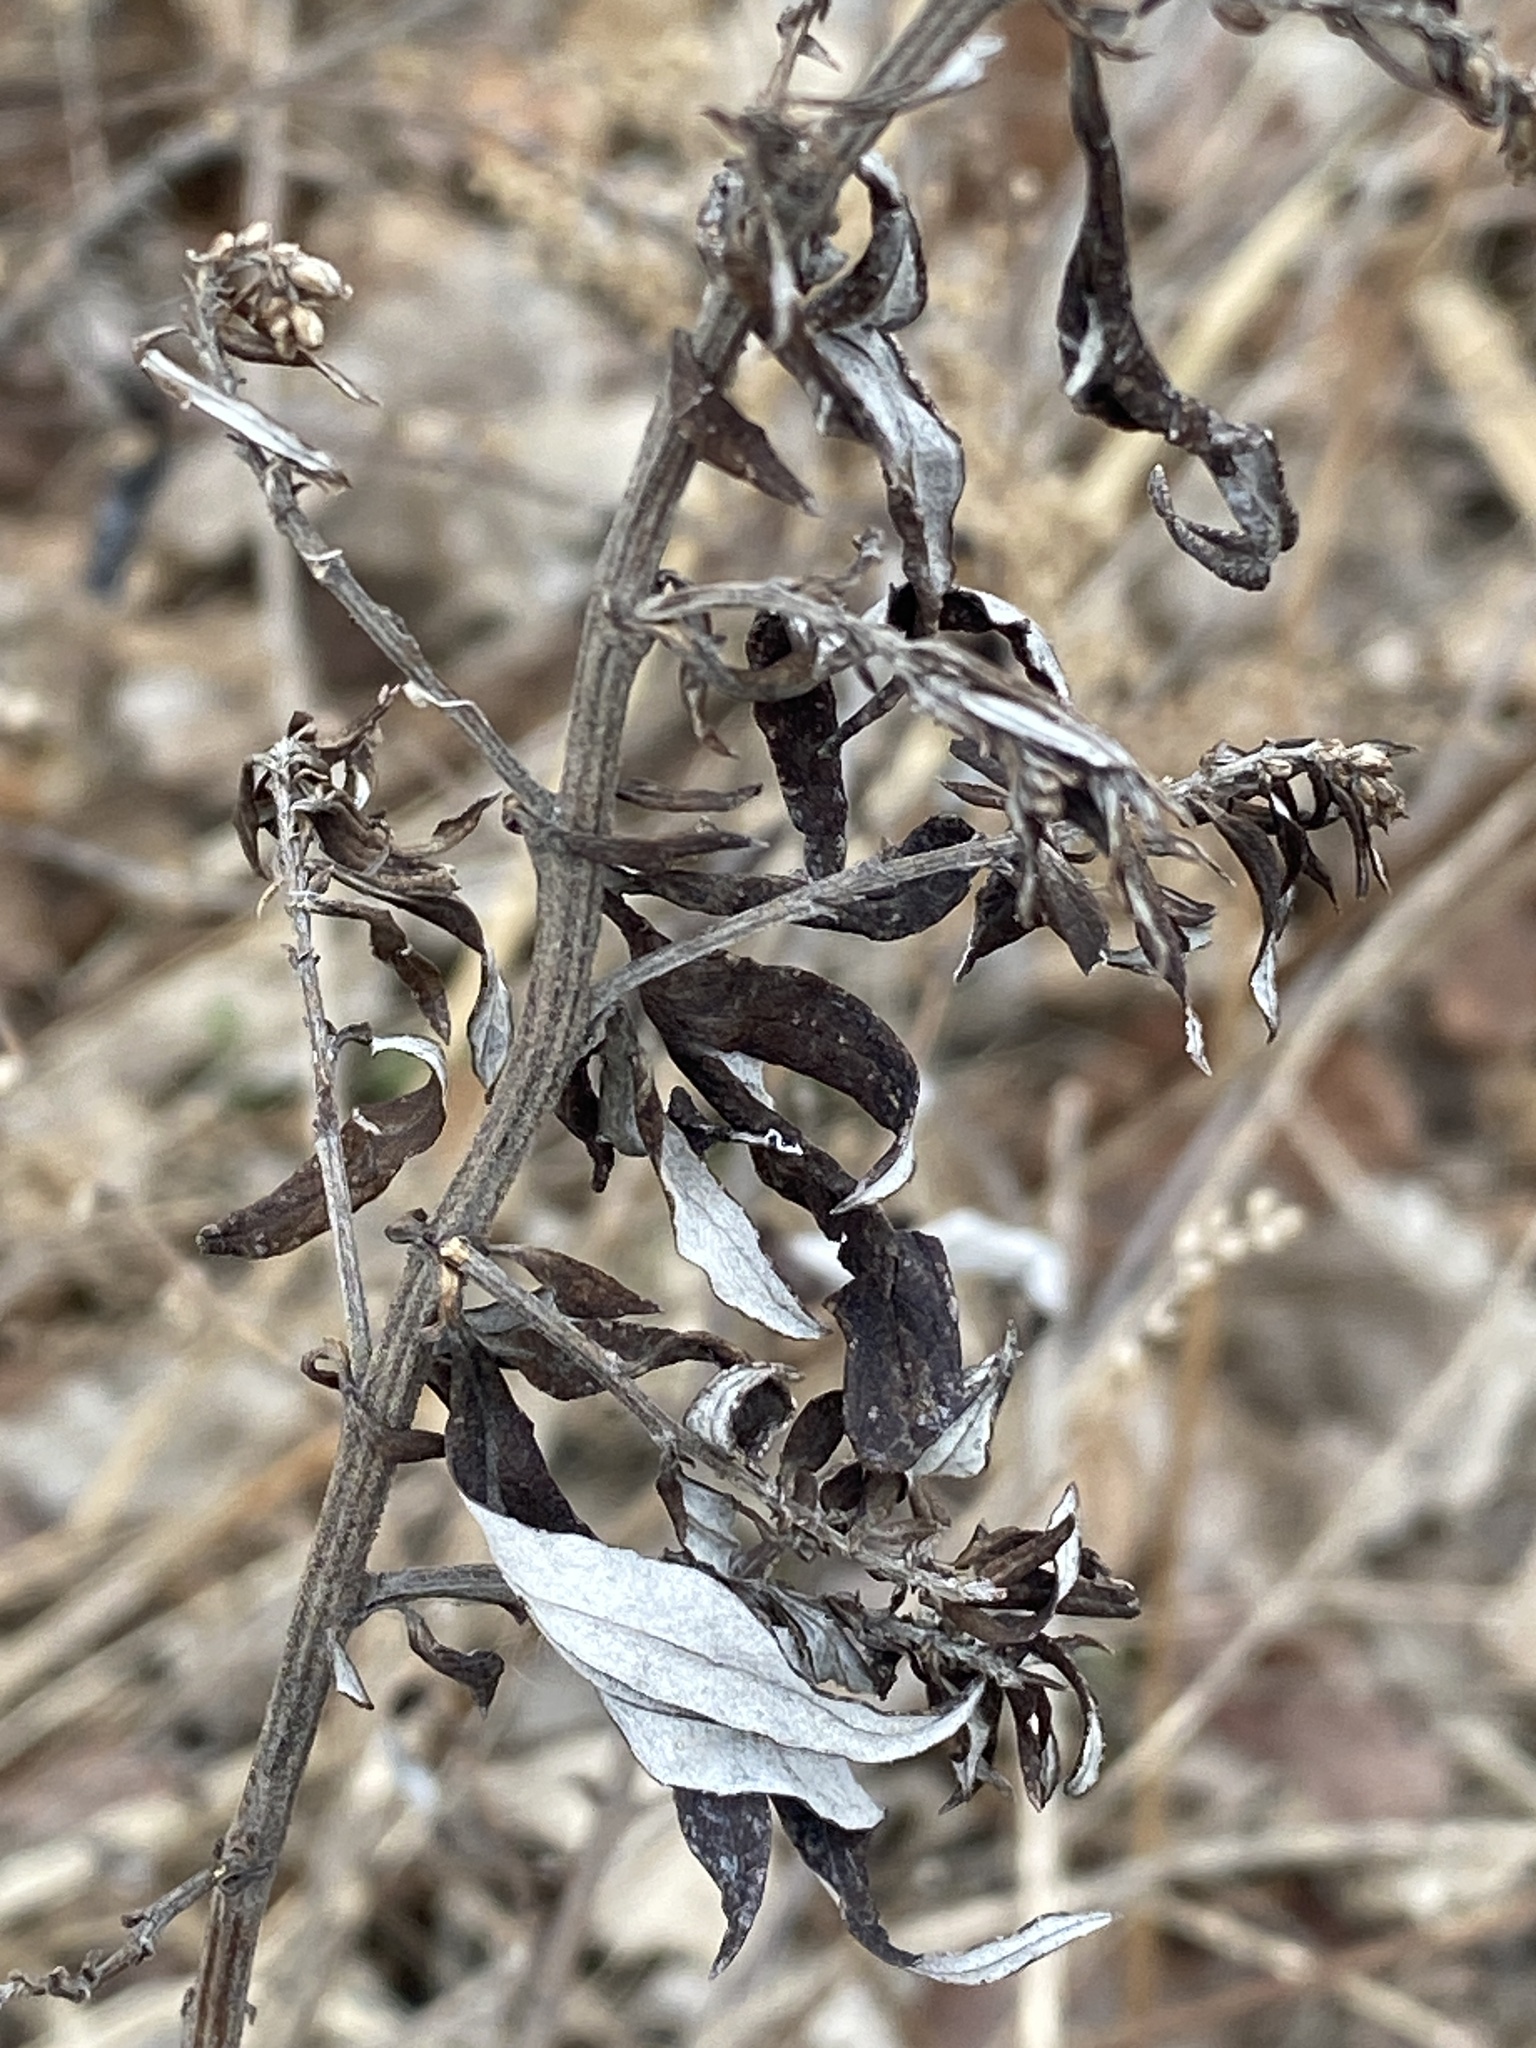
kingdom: Plantae
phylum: Tracheophyta
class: Magnoliopsida
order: Asterales
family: Asteraceae
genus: Artemisia
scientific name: Artemisia vulgaris
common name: Mugwort
